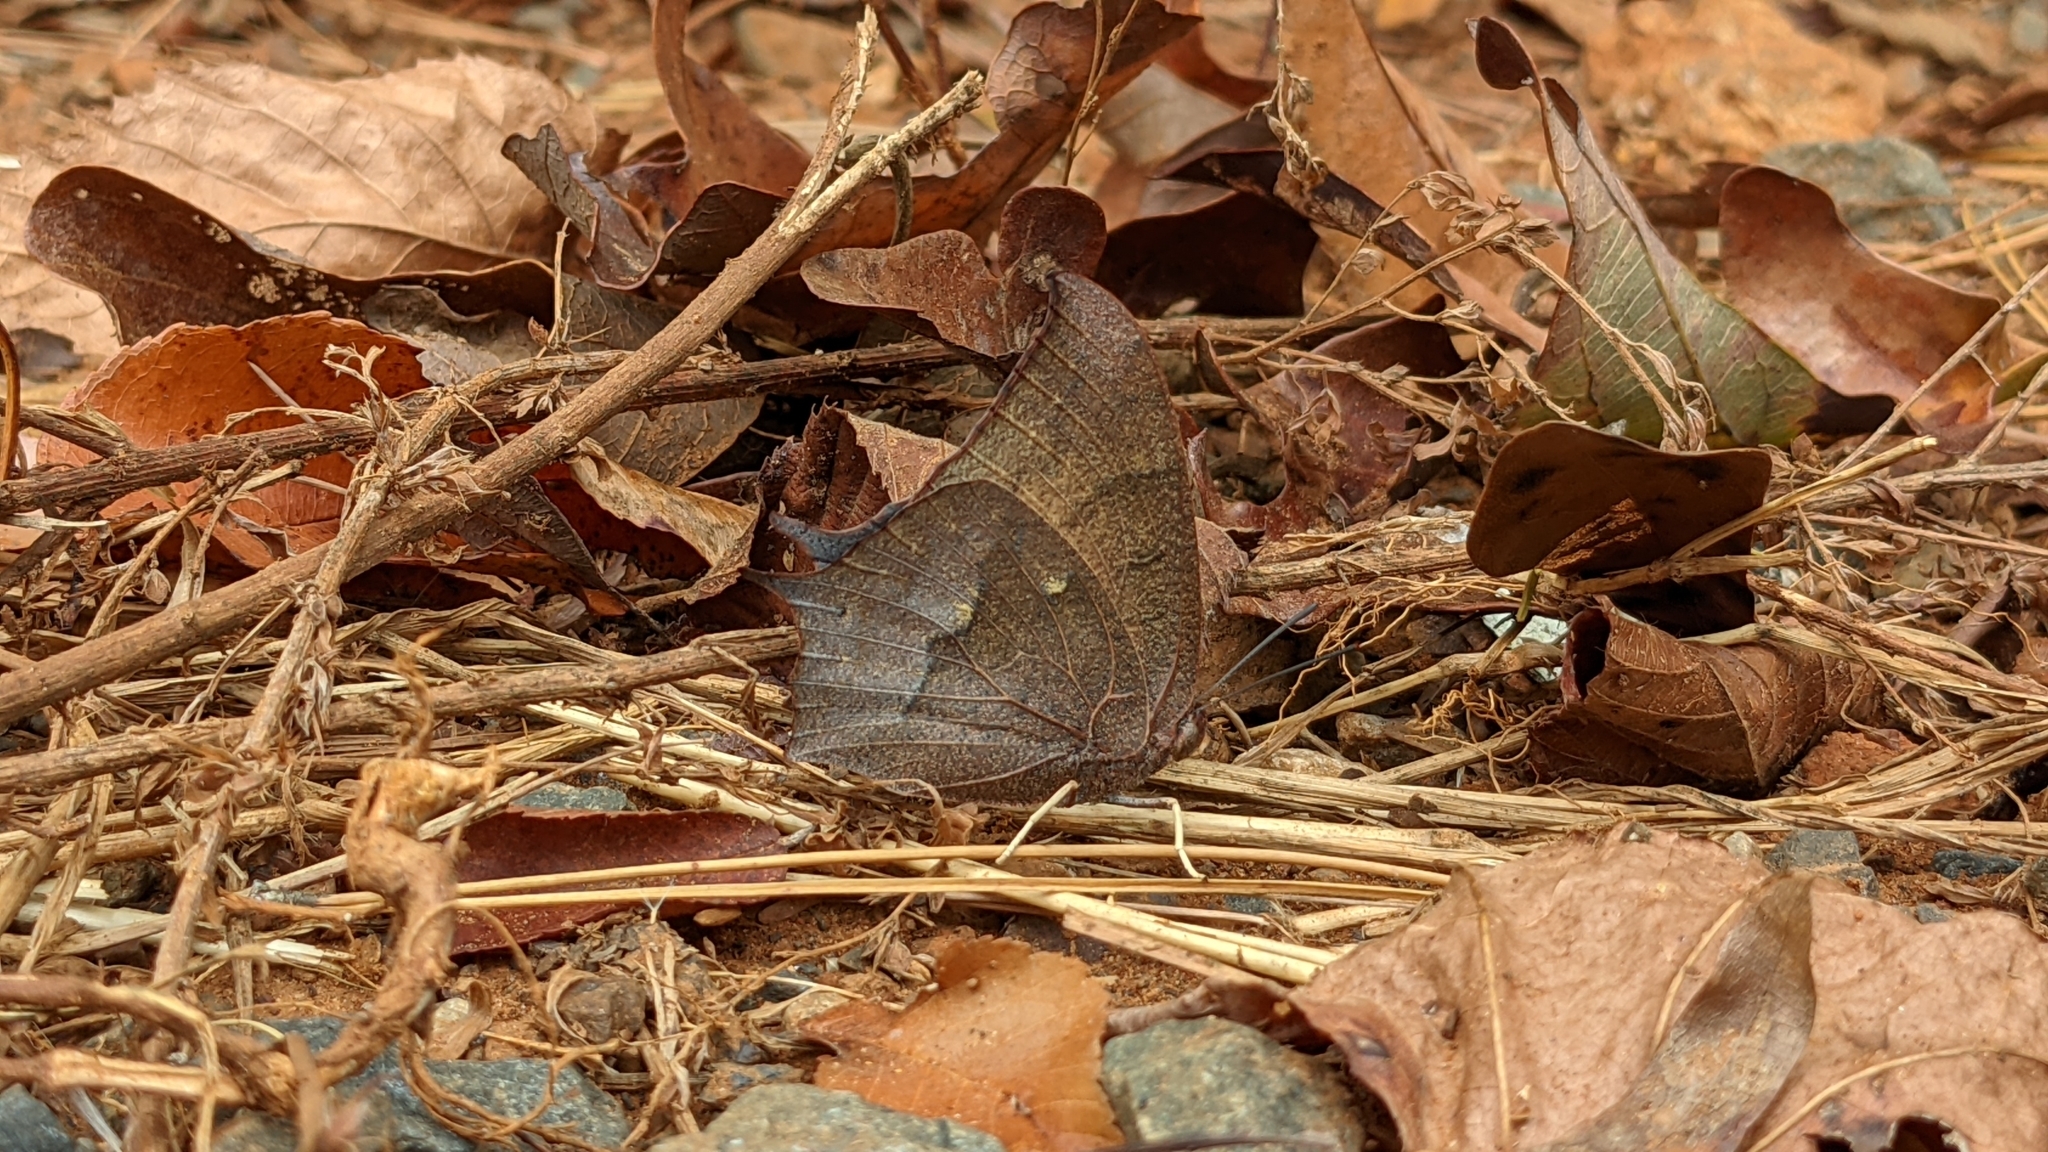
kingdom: Animalia
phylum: Arthropoda
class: Insecta
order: Lepidoptera
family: Nymphalidae
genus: Anaea
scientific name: Anaea andria
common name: Goatweed leafwing
